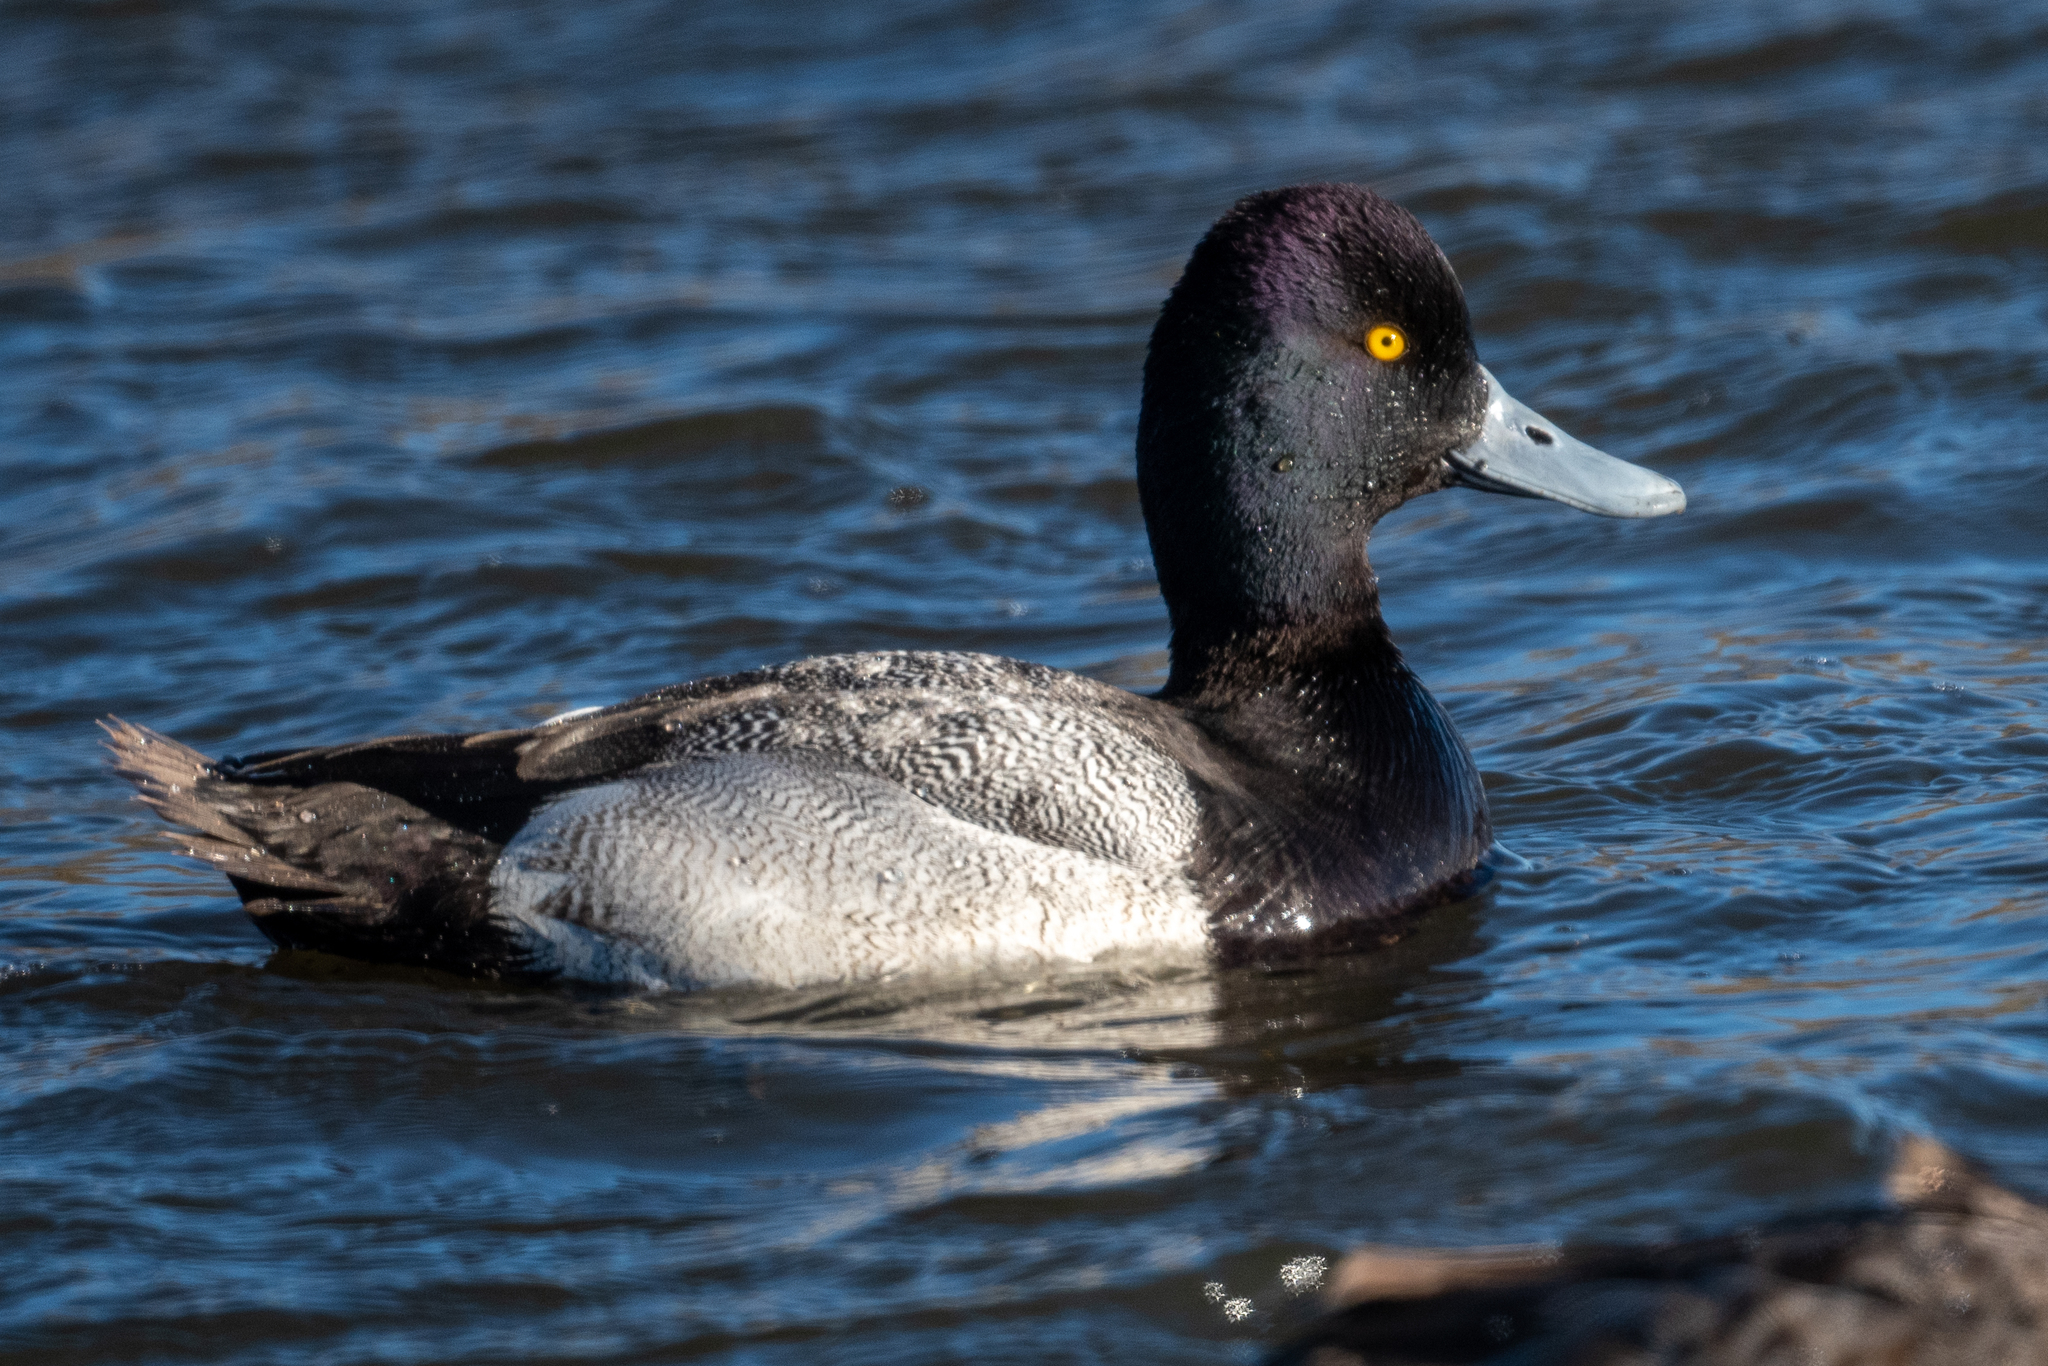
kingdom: Animalia
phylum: Chordata
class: Aves
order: Anseriformes
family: Anatidae
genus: Aythya
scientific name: Aythya affinis
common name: Lesser scaup
